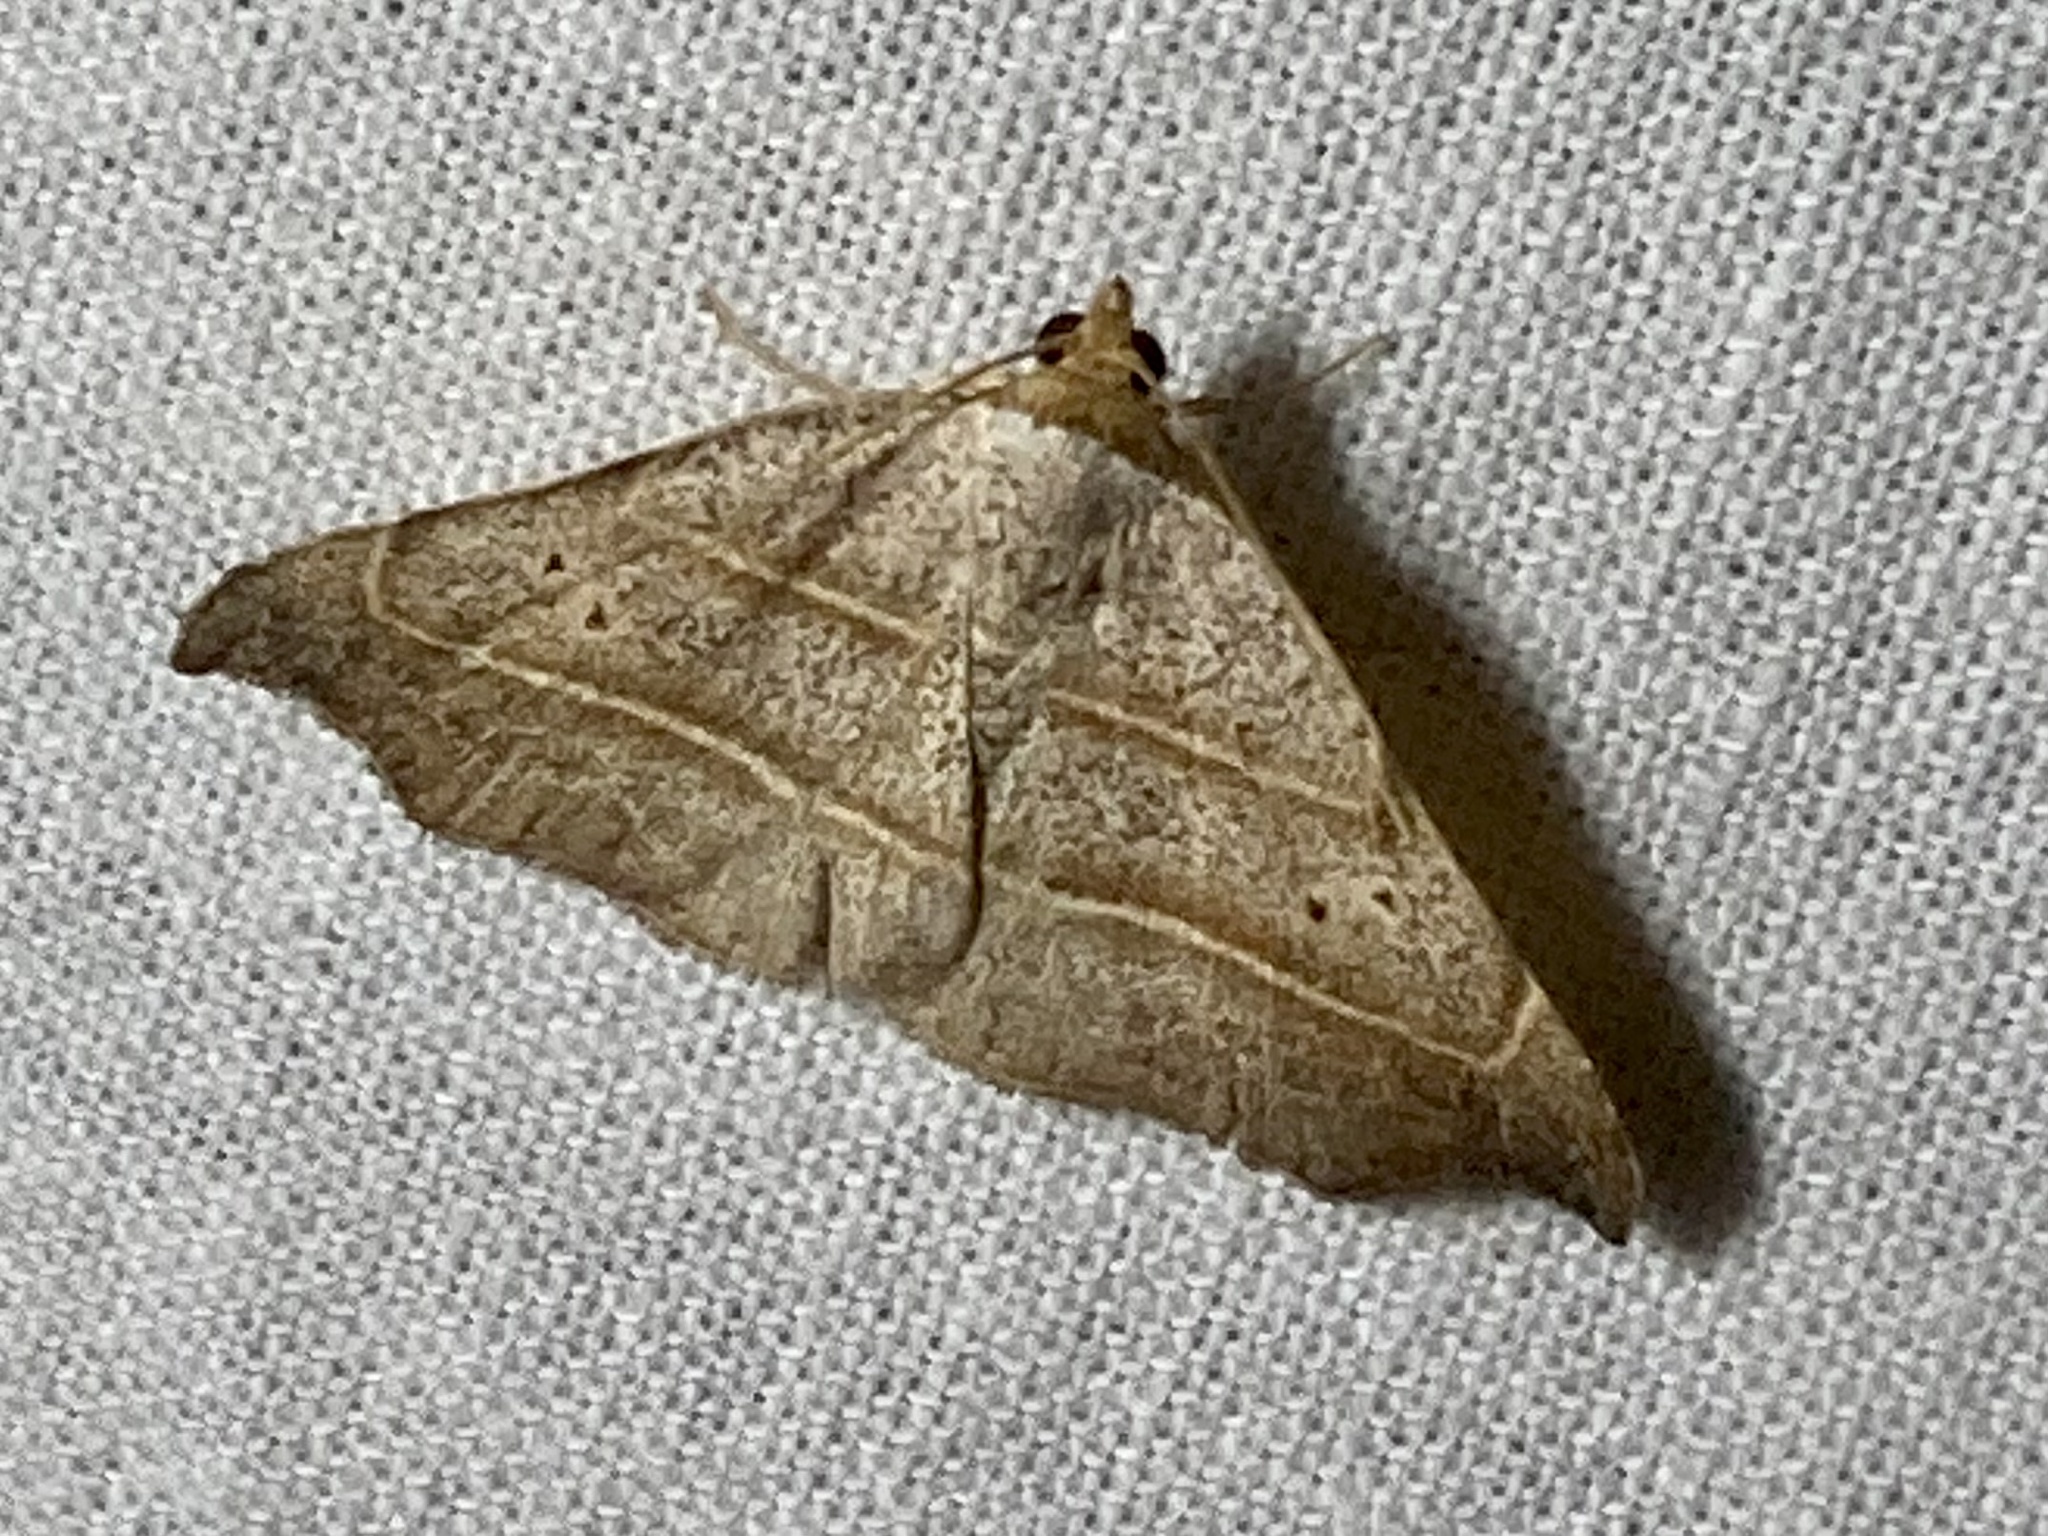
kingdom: Animalia
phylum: Arthropoda
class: Insecta
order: Lepidoptera
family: Erebidae
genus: Laspeyria
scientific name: Laspeyria flexula
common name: Beautiful hook-tip
